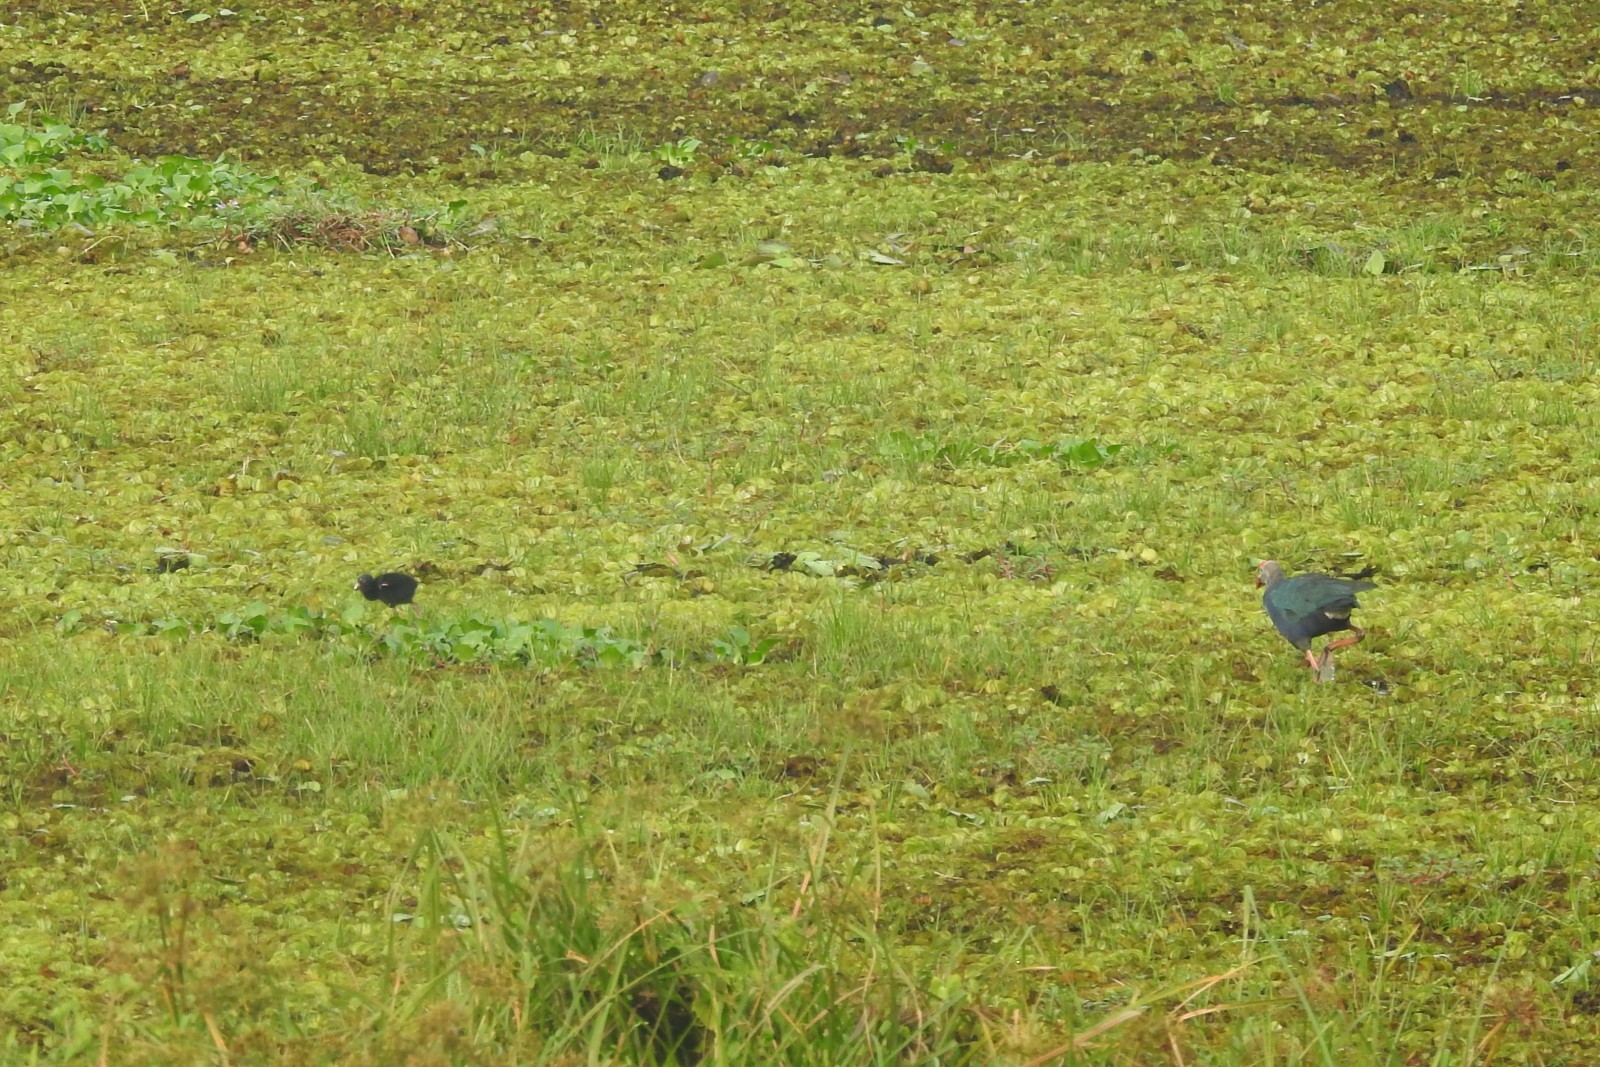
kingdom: Animalia
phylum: Chordata
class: Aves
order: Gruiformes
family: Rallidae
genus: Porphyrio
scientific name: Porphyrio porphyrio
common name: Purple swamphen
